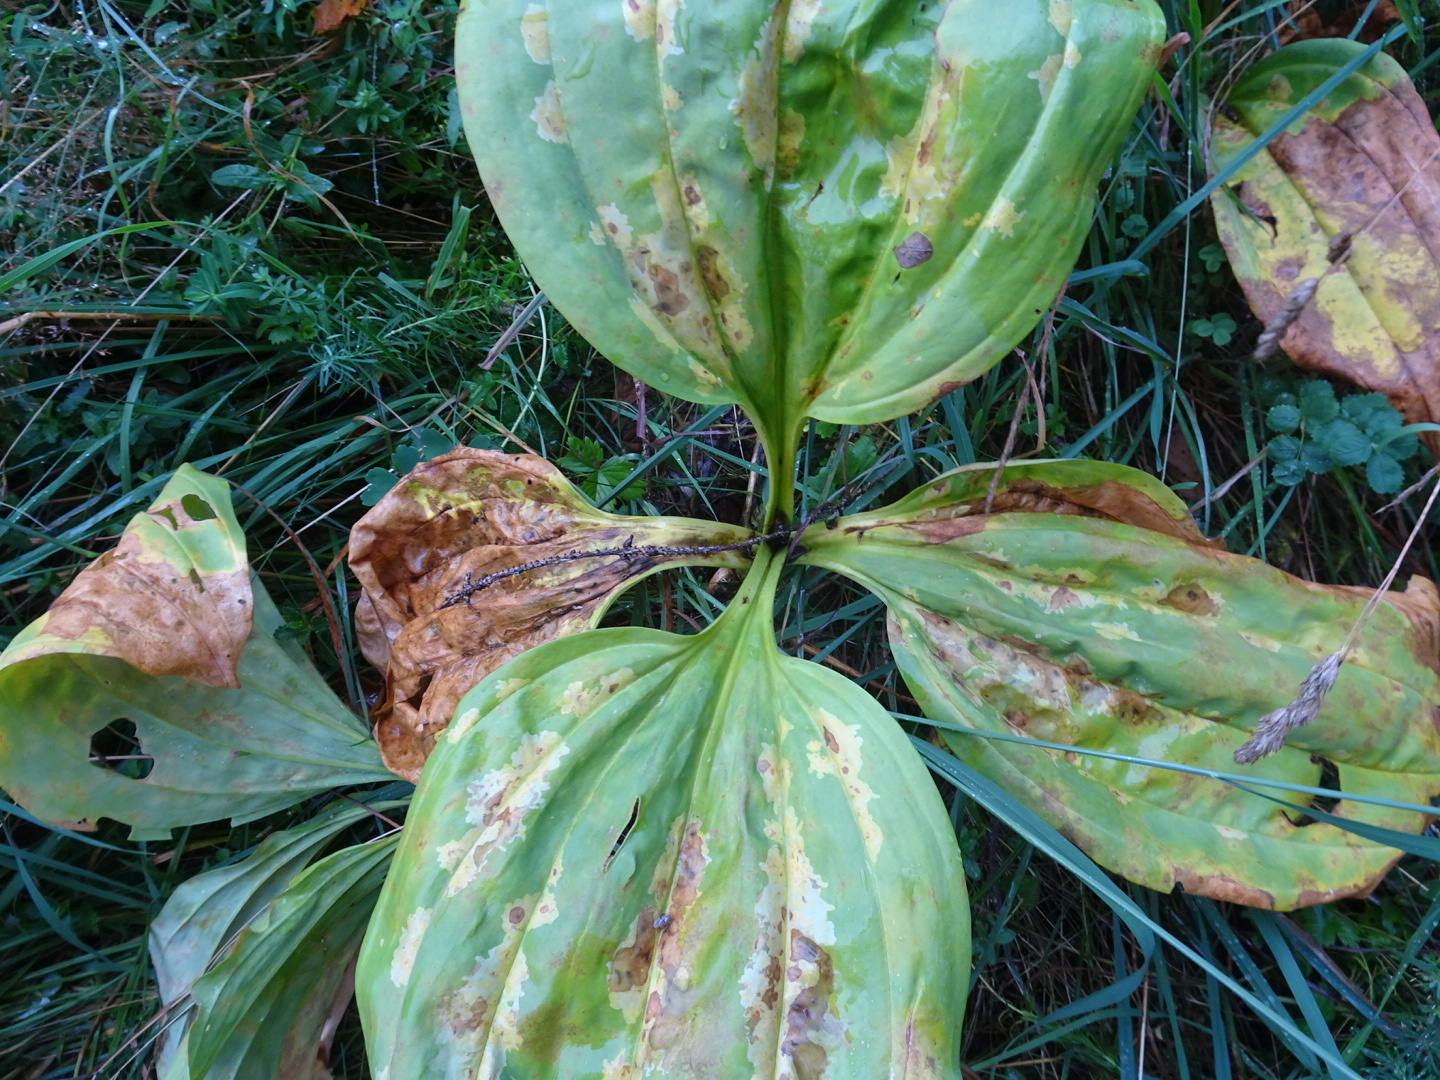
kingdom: Plantae
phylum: Tracheophyta
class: Magnoliopsida
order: Gentianales
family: Gentianaceae
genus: Gentiana
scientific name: Gentiana lutea
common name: Great yellow gentian
